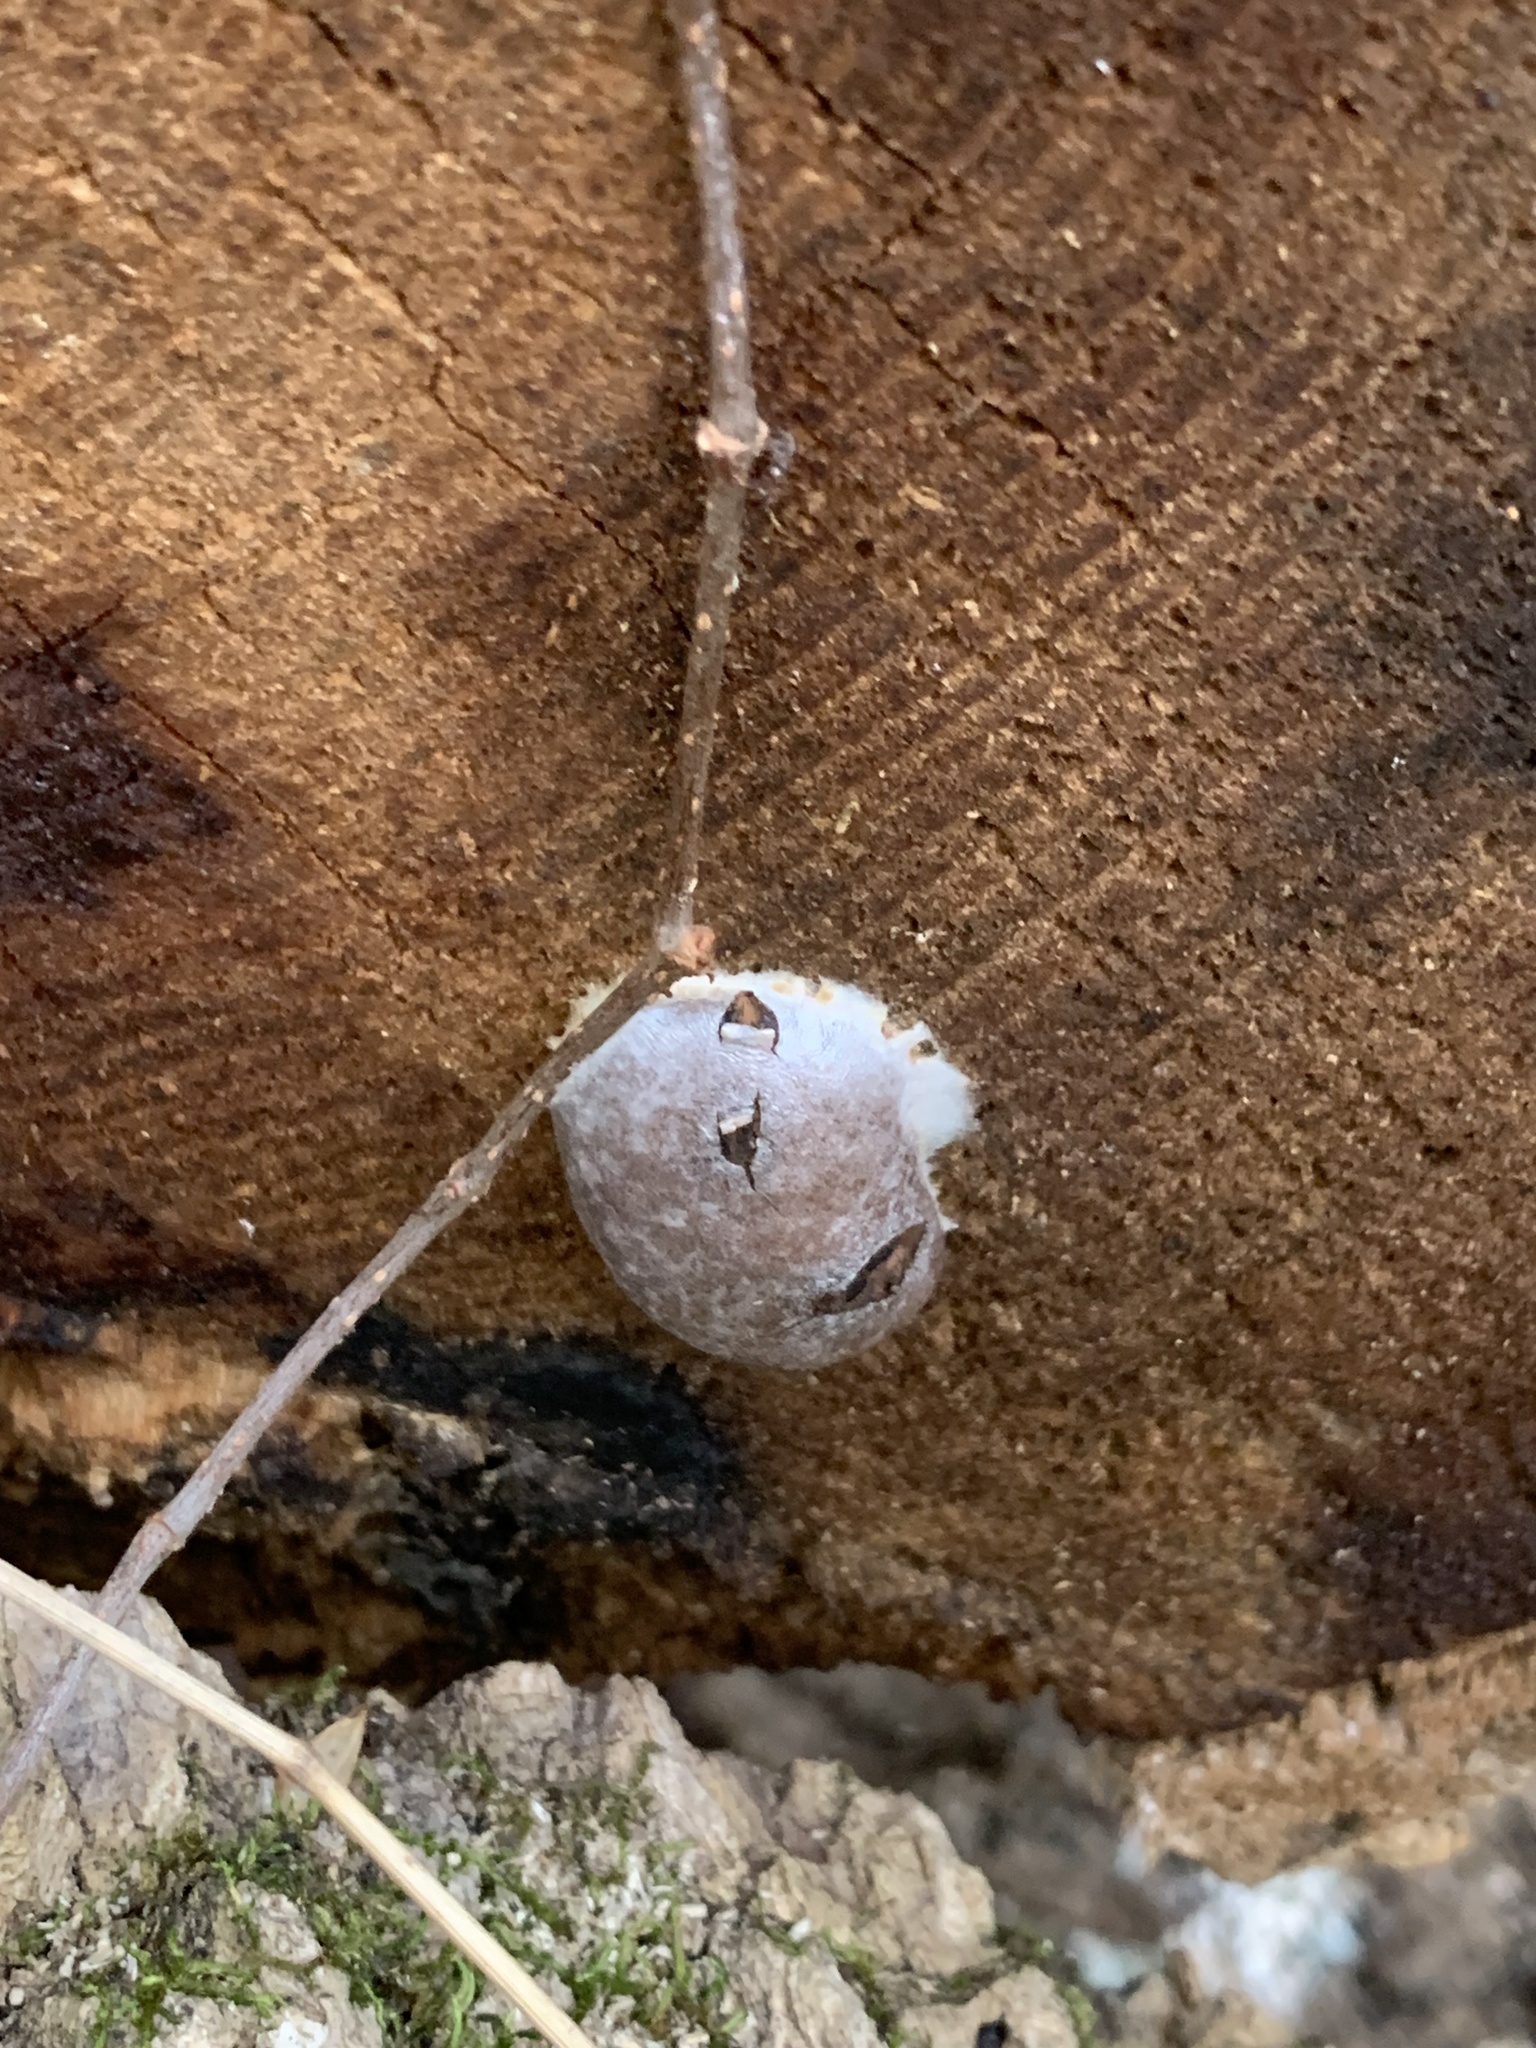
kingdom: Protozoa
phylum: Mycetozoa
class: Myxomycetes
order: Cribrariales
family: Tubiferaceae
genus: Reticularia
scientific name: Reticularia lycoperdon
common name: False puffball
